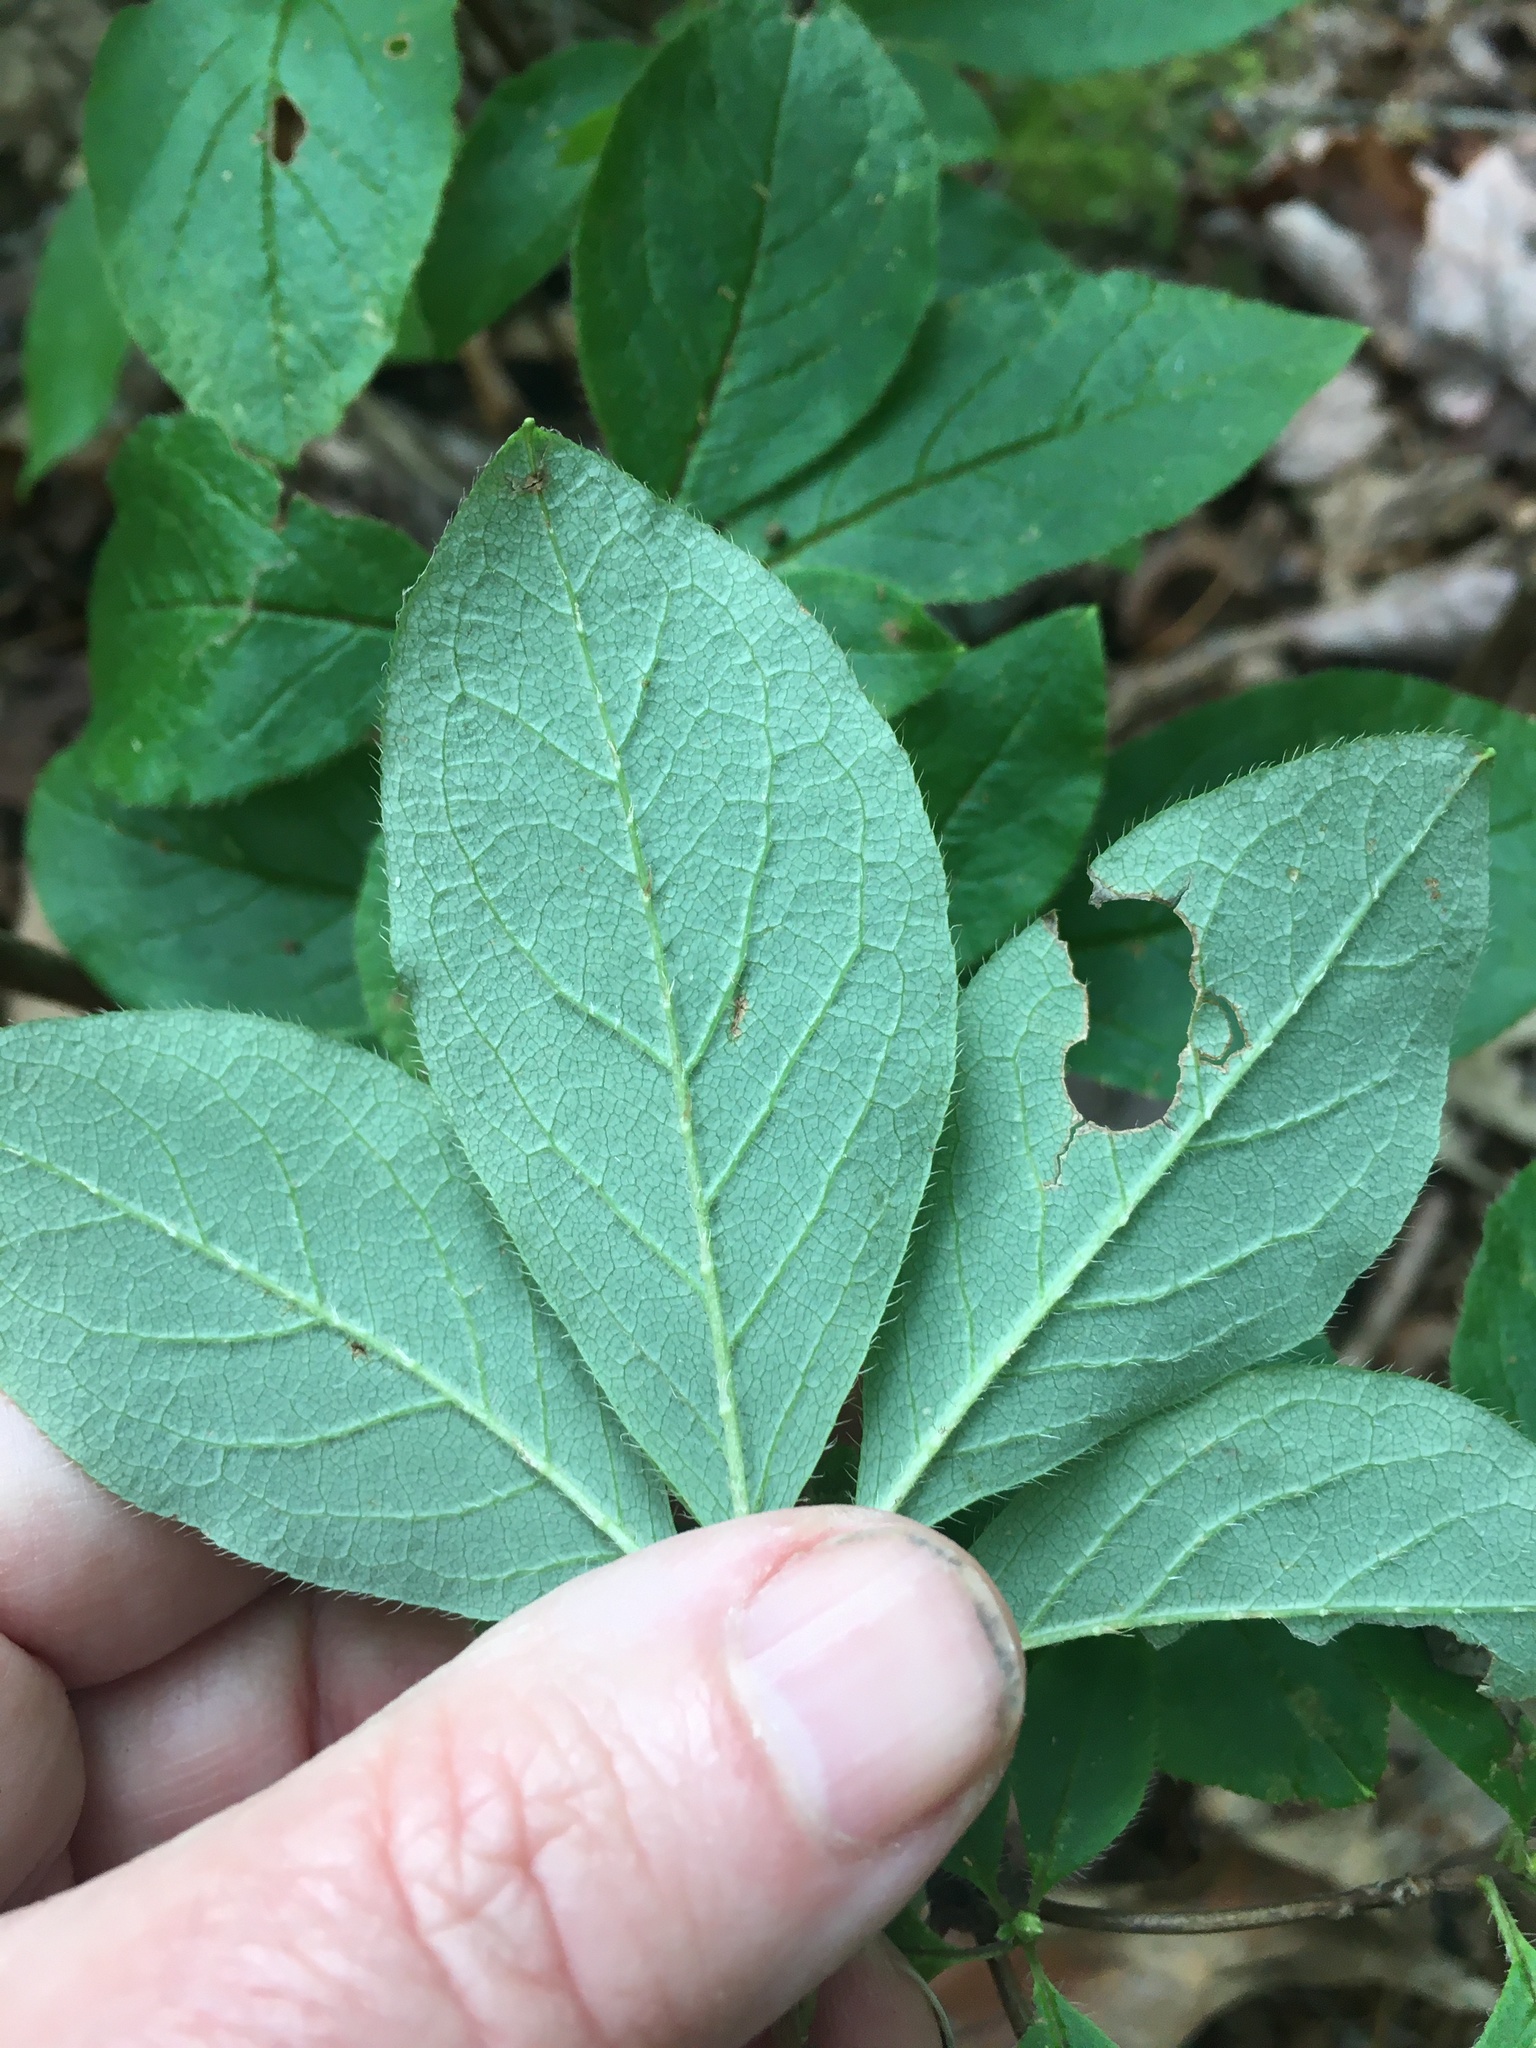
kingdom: Plantae
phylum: Tracheophyta
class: Magnoliopsida
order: Ericales
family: Ericaceae
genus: Rhododendron
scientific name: Rhododendron pilosum
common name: Hairy minniebush
